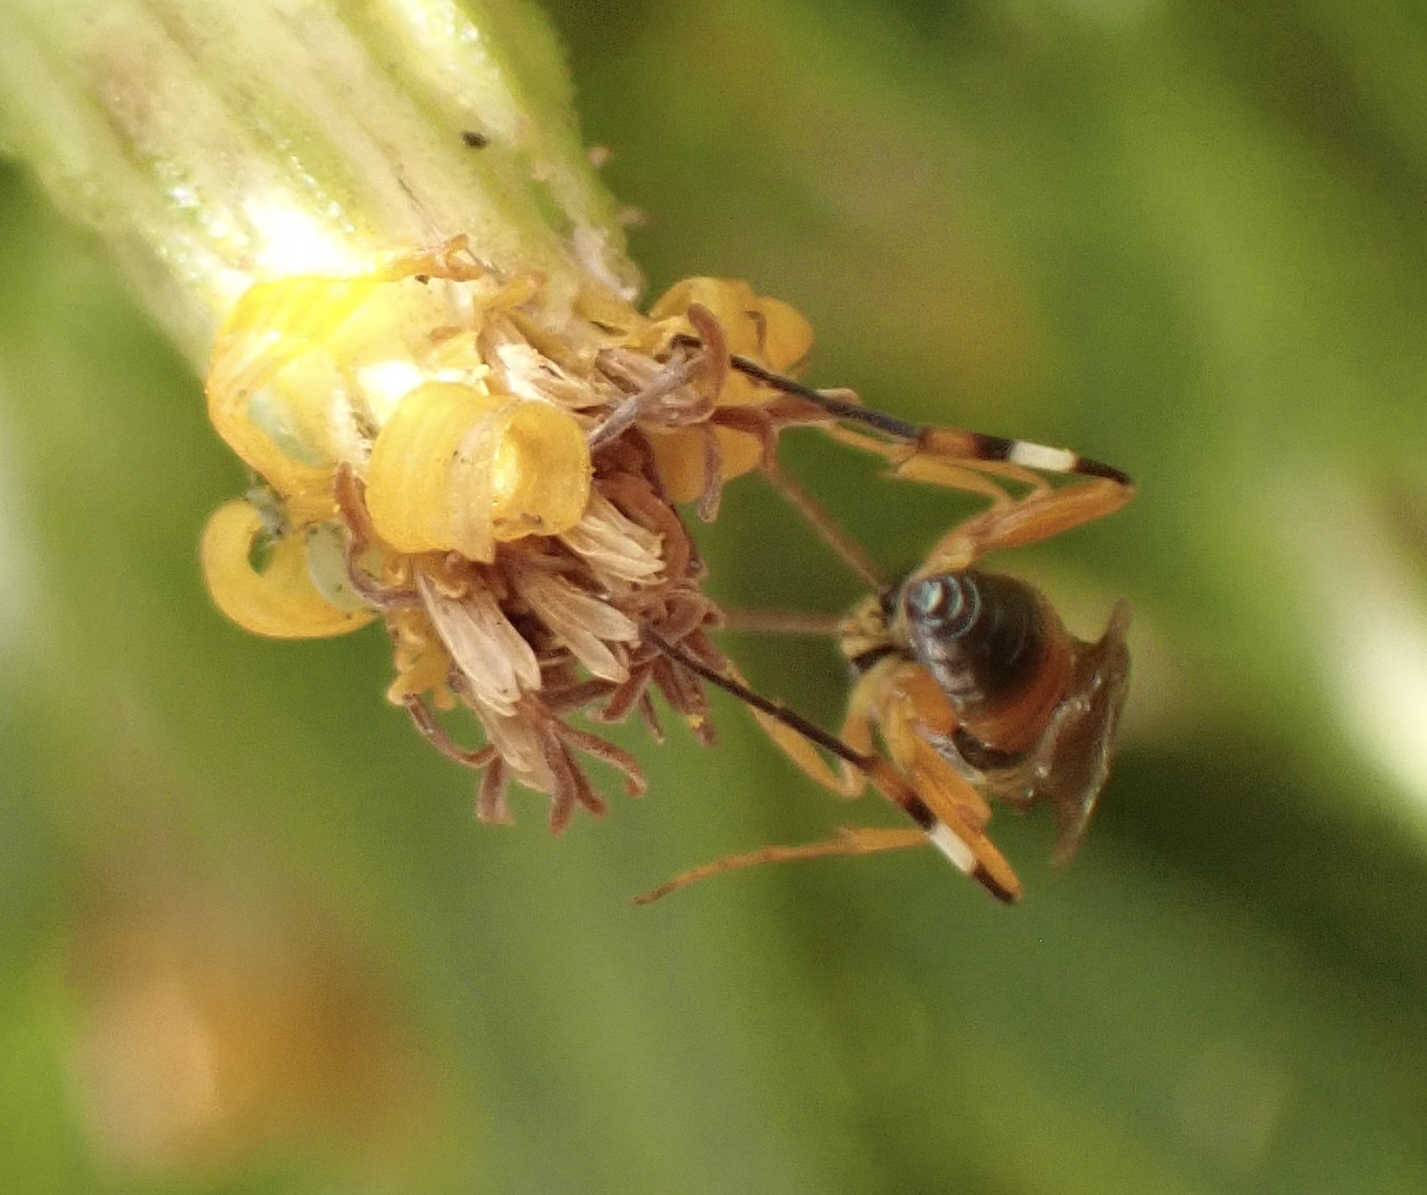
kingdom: Animalia
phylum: Arthropoda
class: Insecta
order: Hymenoptera
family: Ichneumonidae
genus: Diplazon
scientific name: Diplazon laetatorius
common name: Parasitoid wasp
